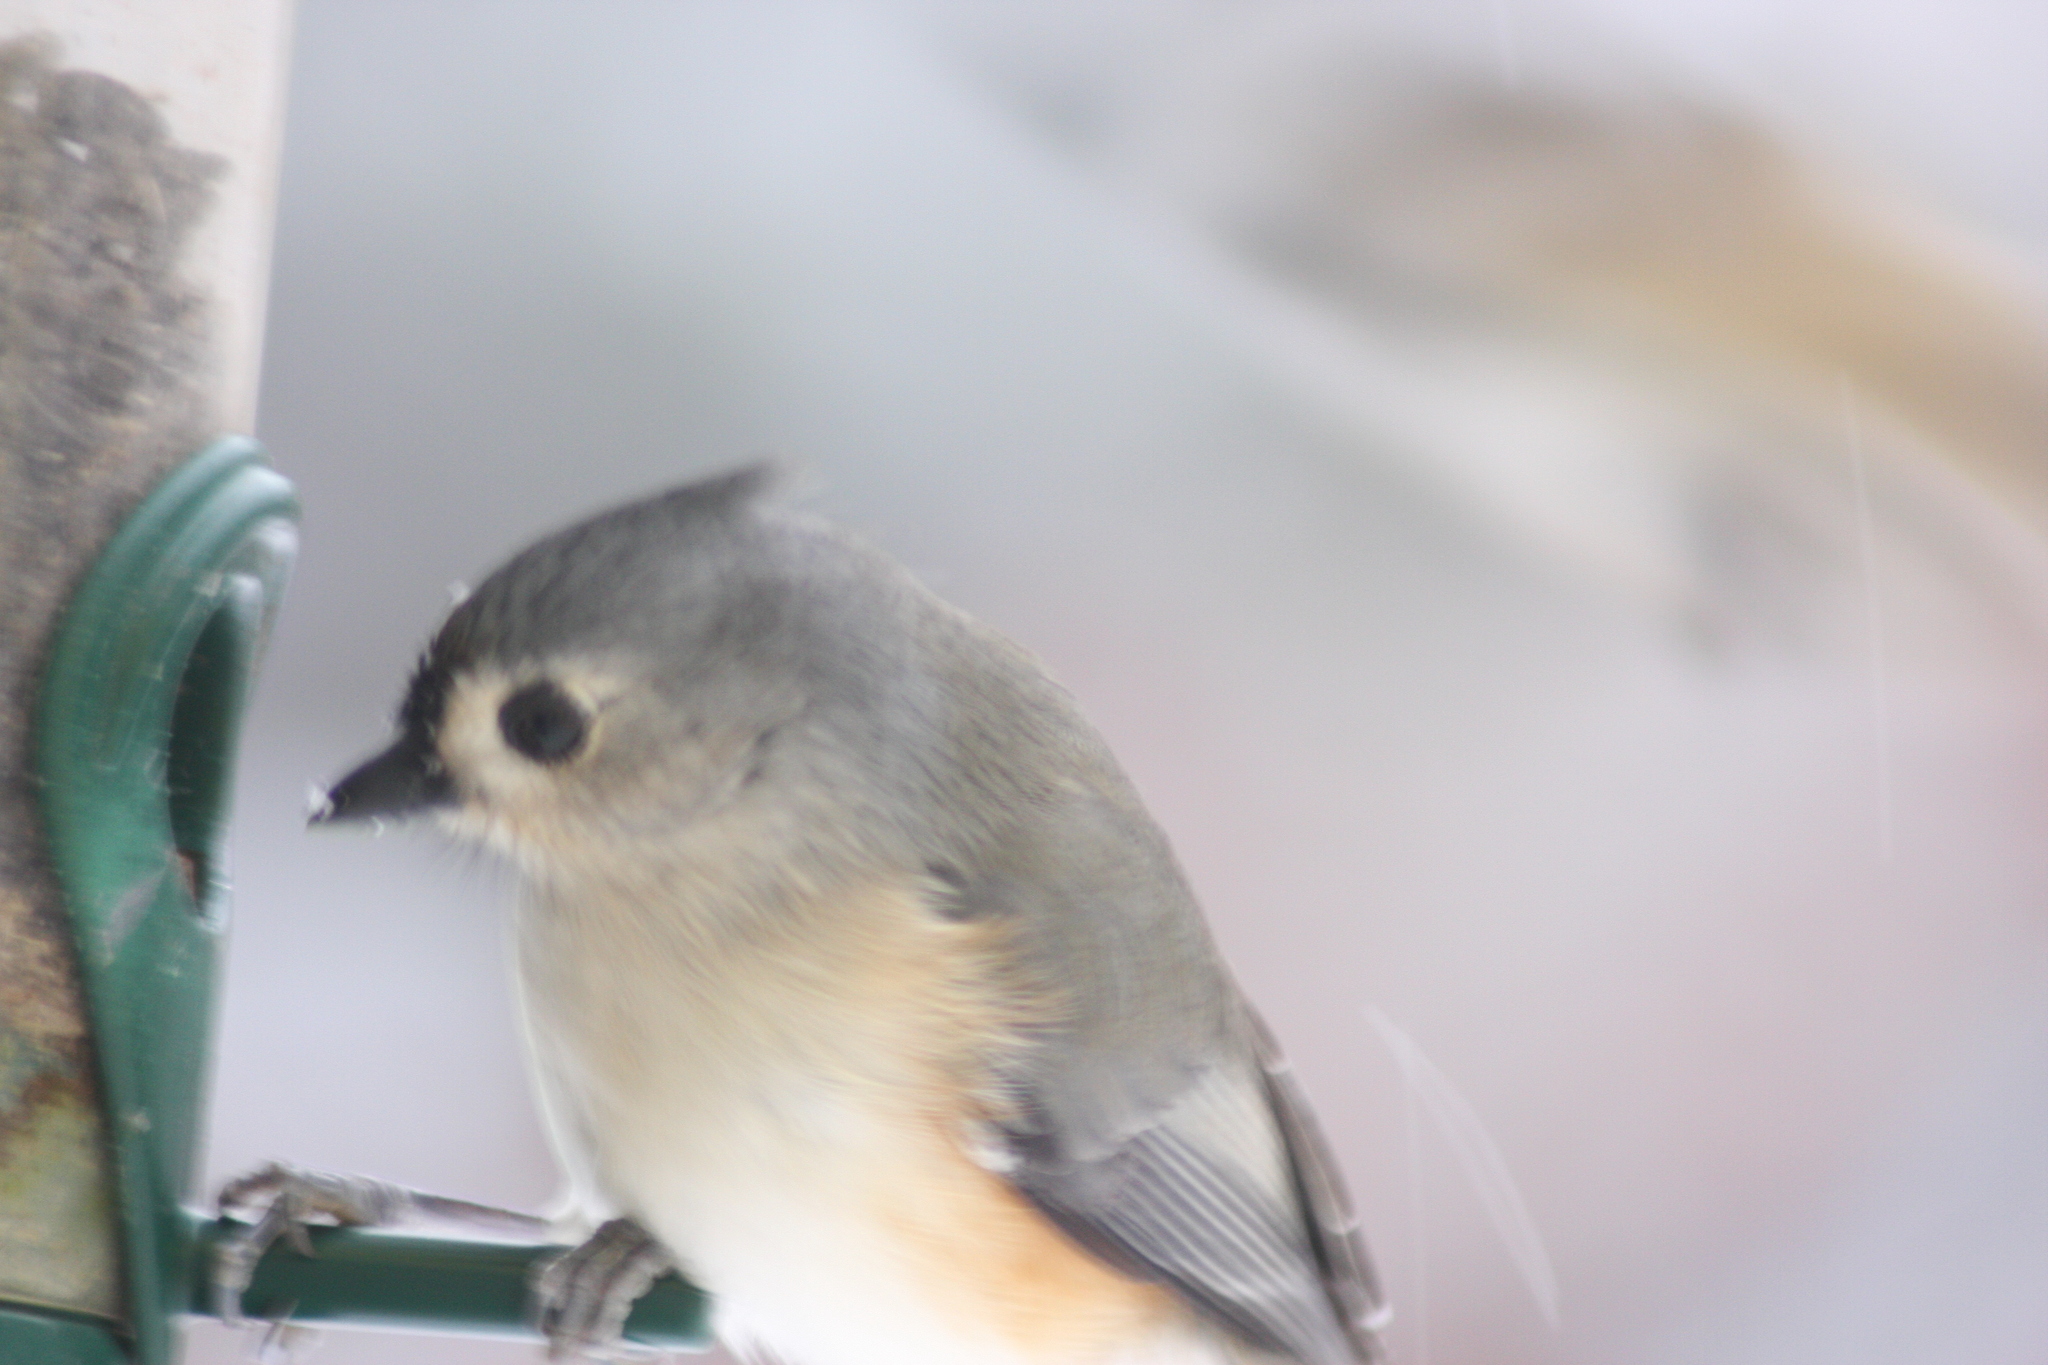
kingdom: Animalia
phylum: Chordata
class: Aves
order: Passeriformes
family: Paridae
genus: Baeolophus
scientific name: Baeolophus bicolor
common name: Tufted titmouse
